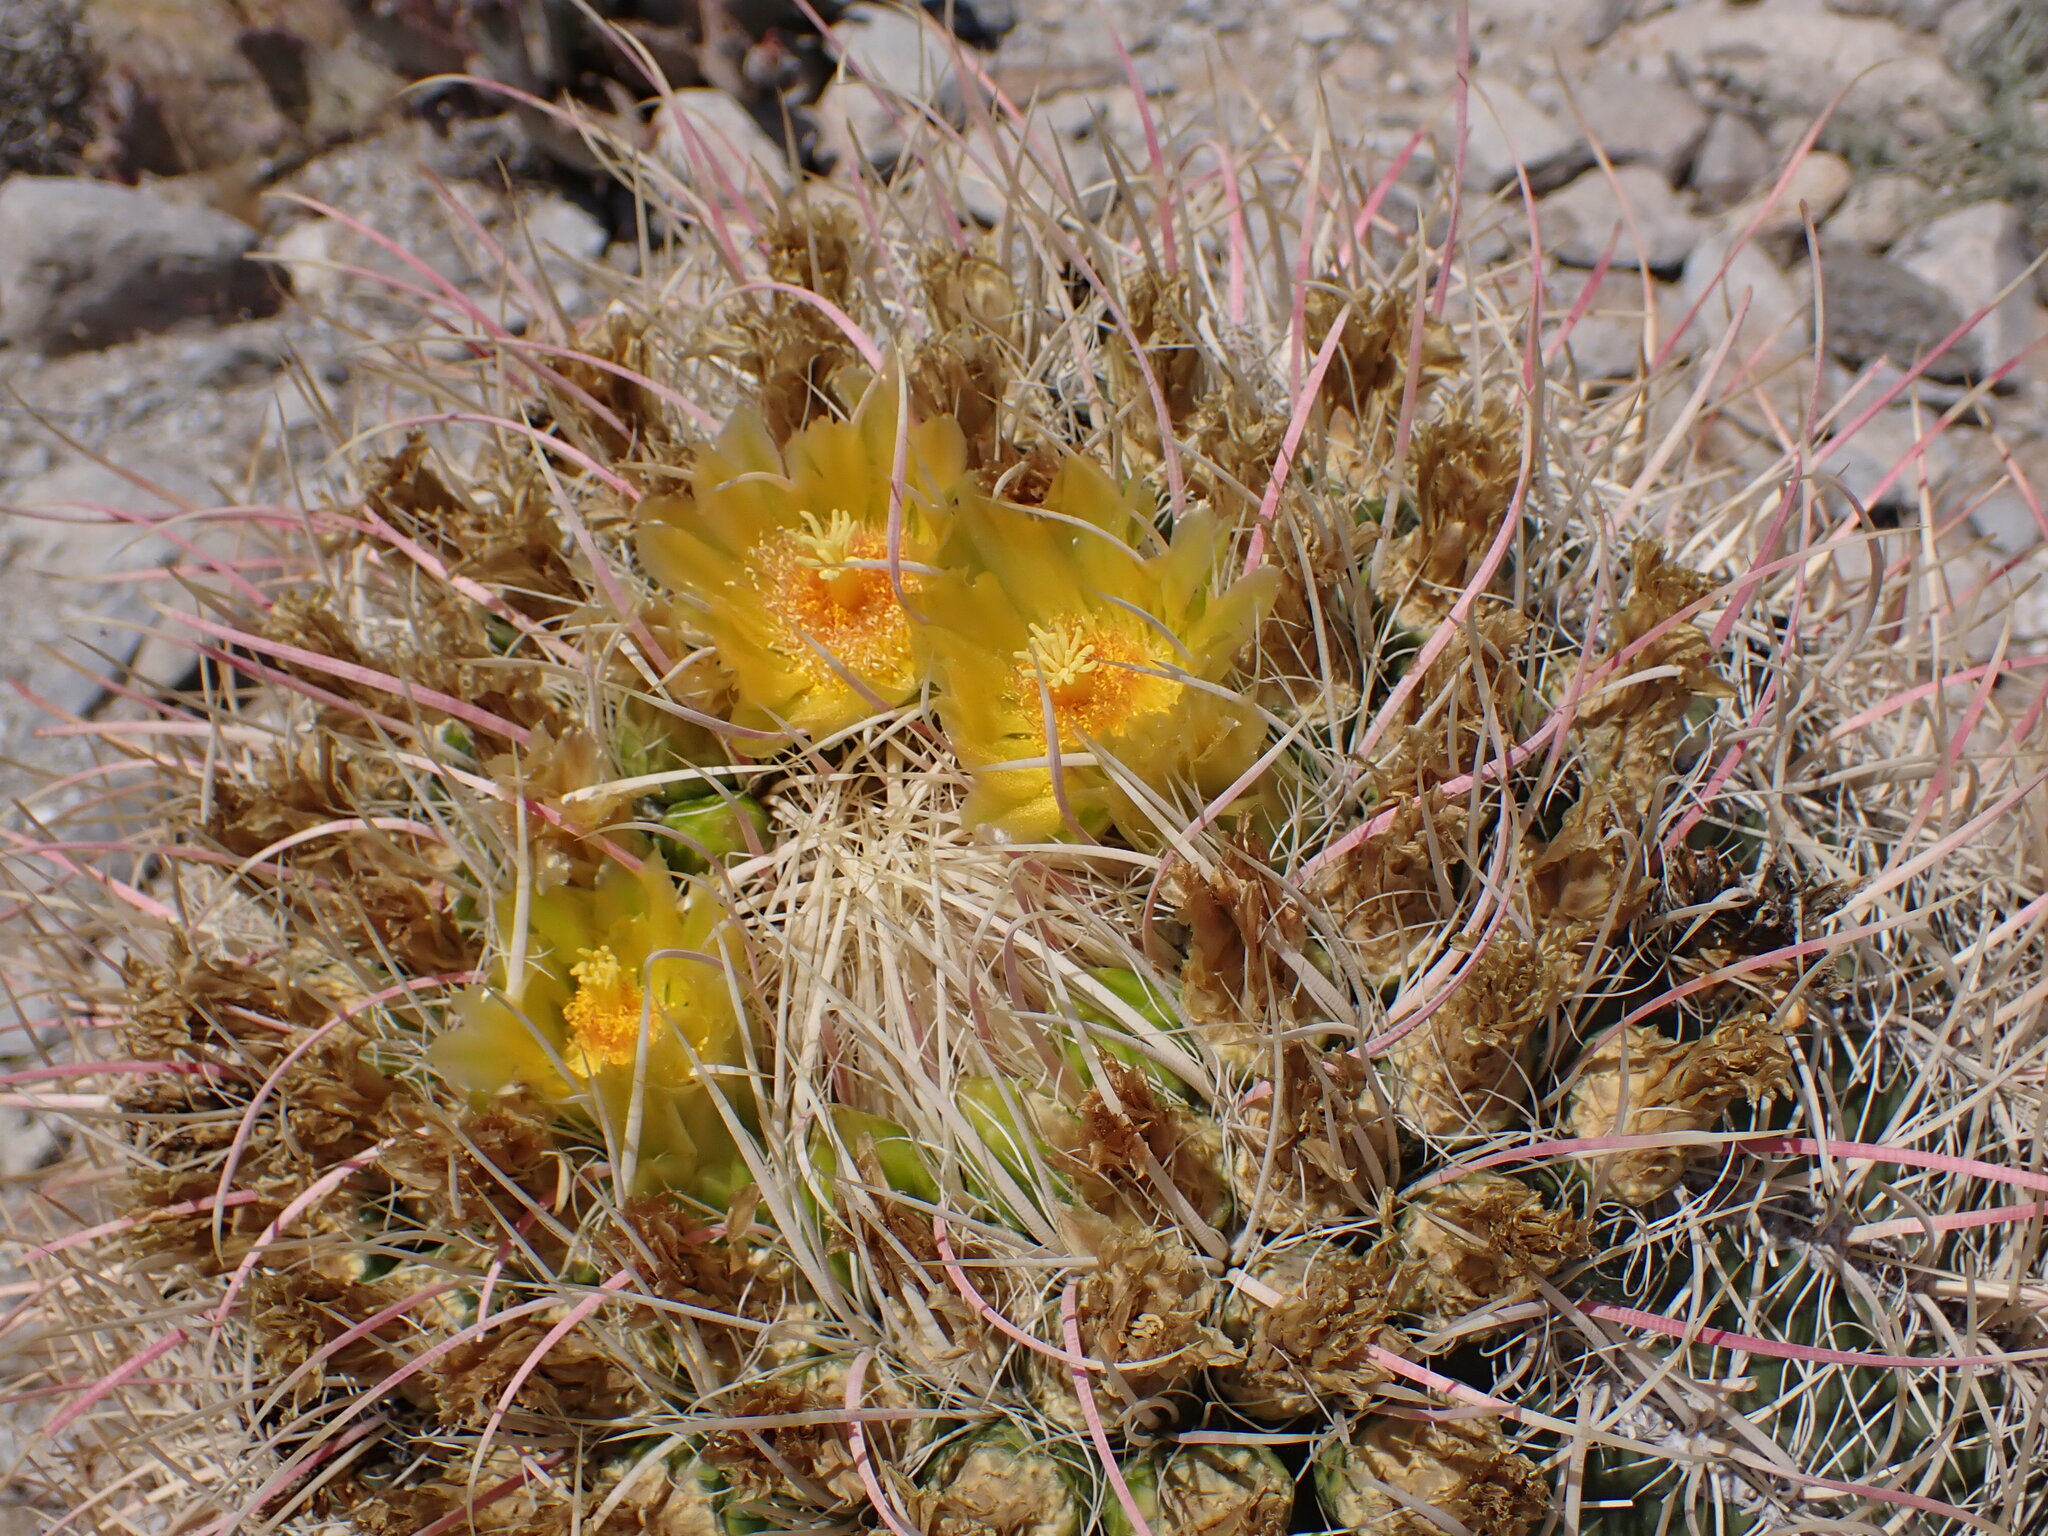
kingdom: Plantae
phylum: Tracheophyta
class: Magnoliopsida
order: Caryophyllales
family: Cactaceae
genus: Ferocactus
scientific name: Ferocactus cylindraceus
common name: California barrel cactus
